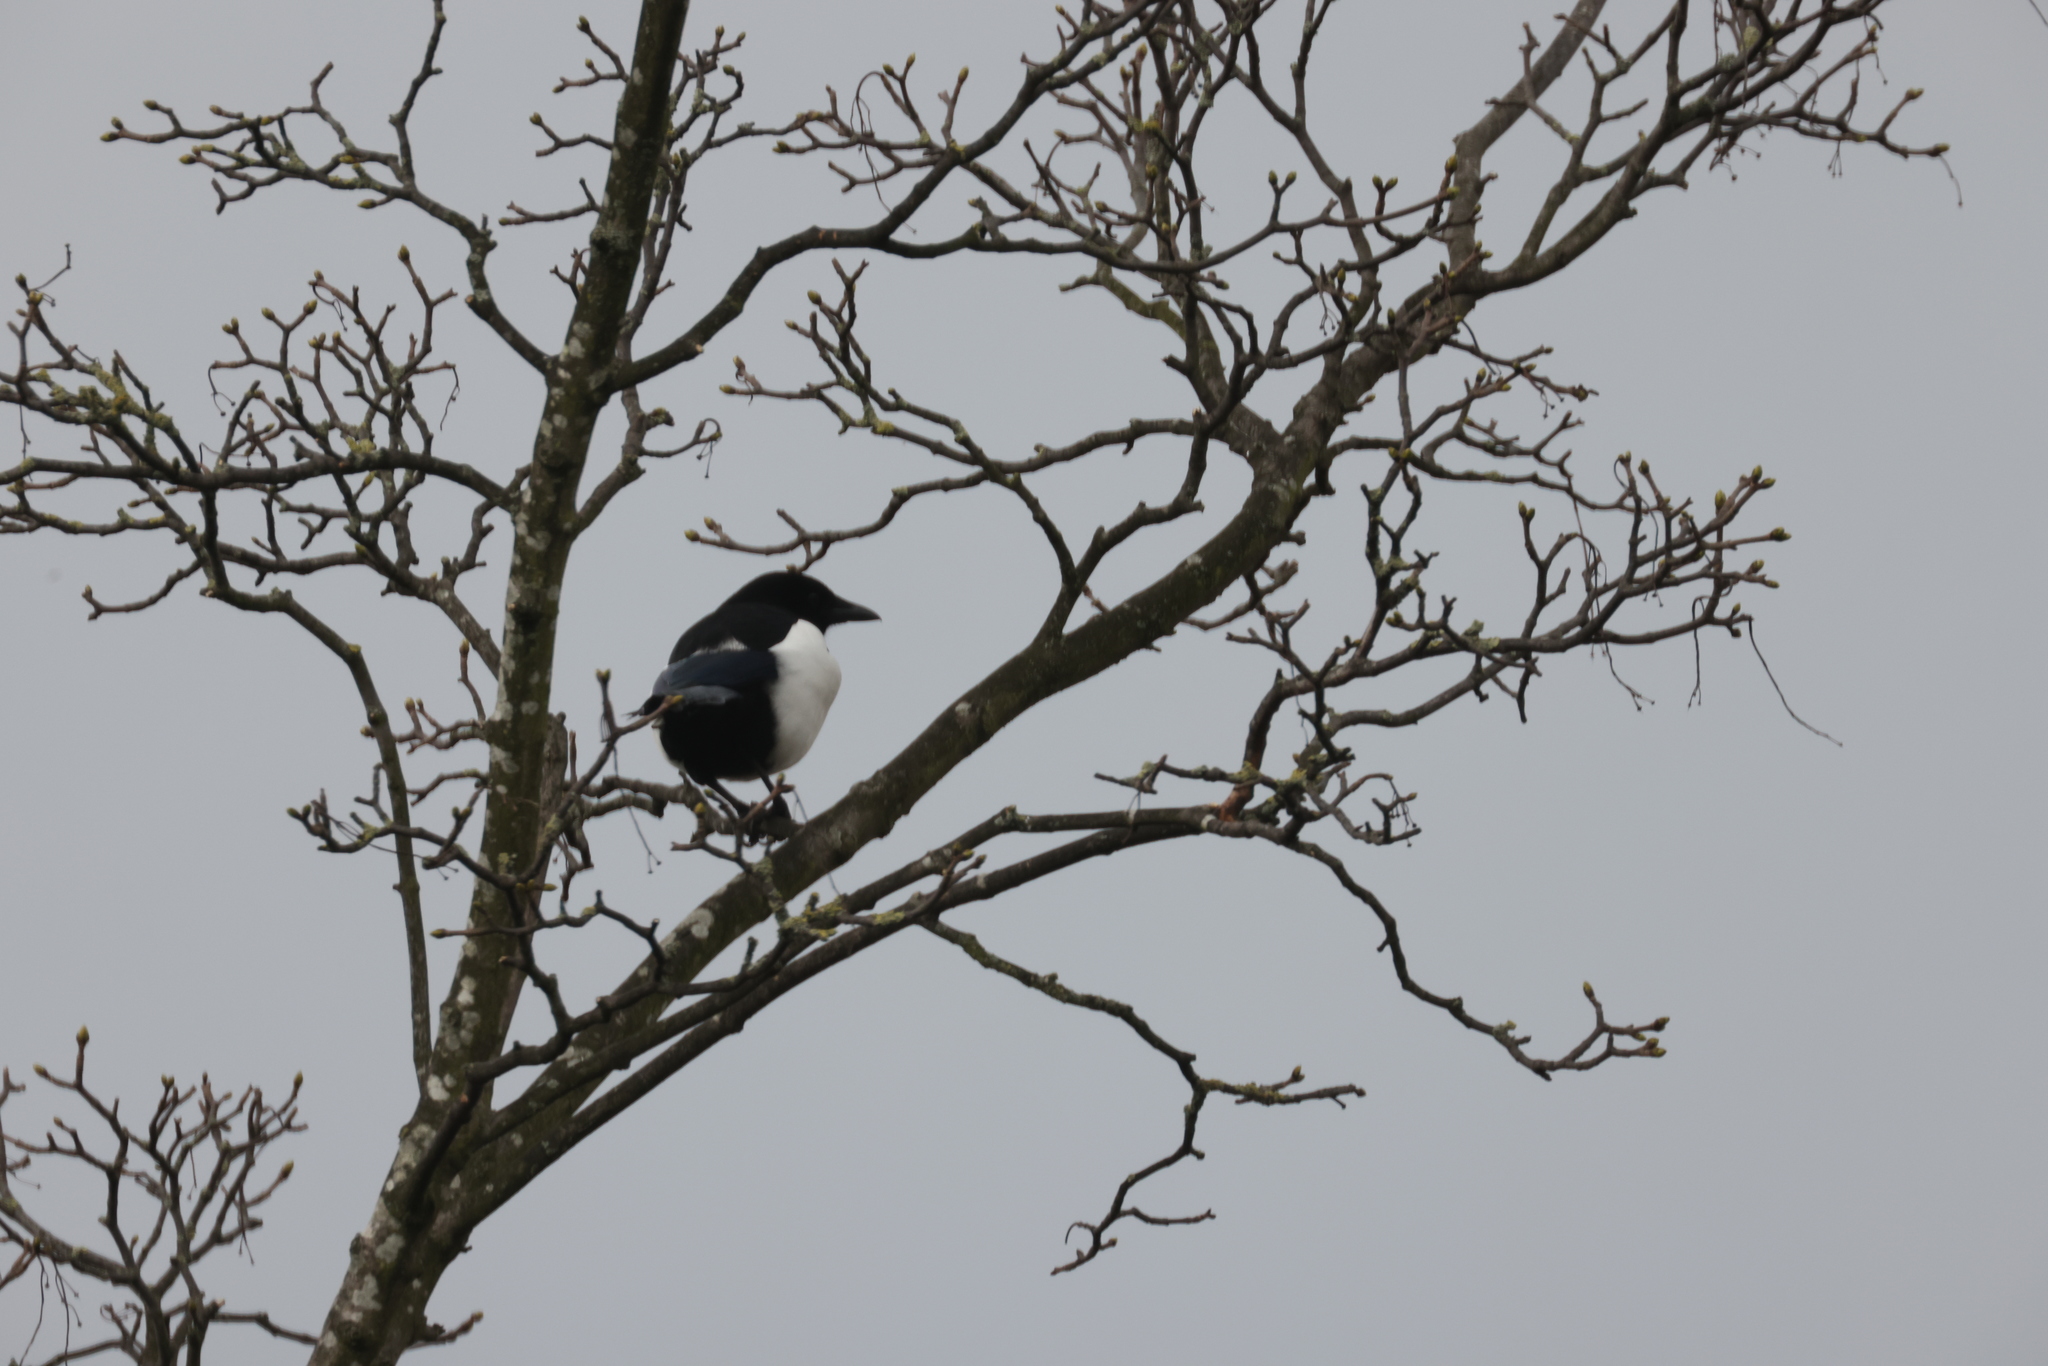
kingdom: Animalia
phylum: Chordata
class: Aves
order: Passeriformes
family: Corvidae
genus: Pica
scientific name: Pica pica
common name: Eurasian magpie
